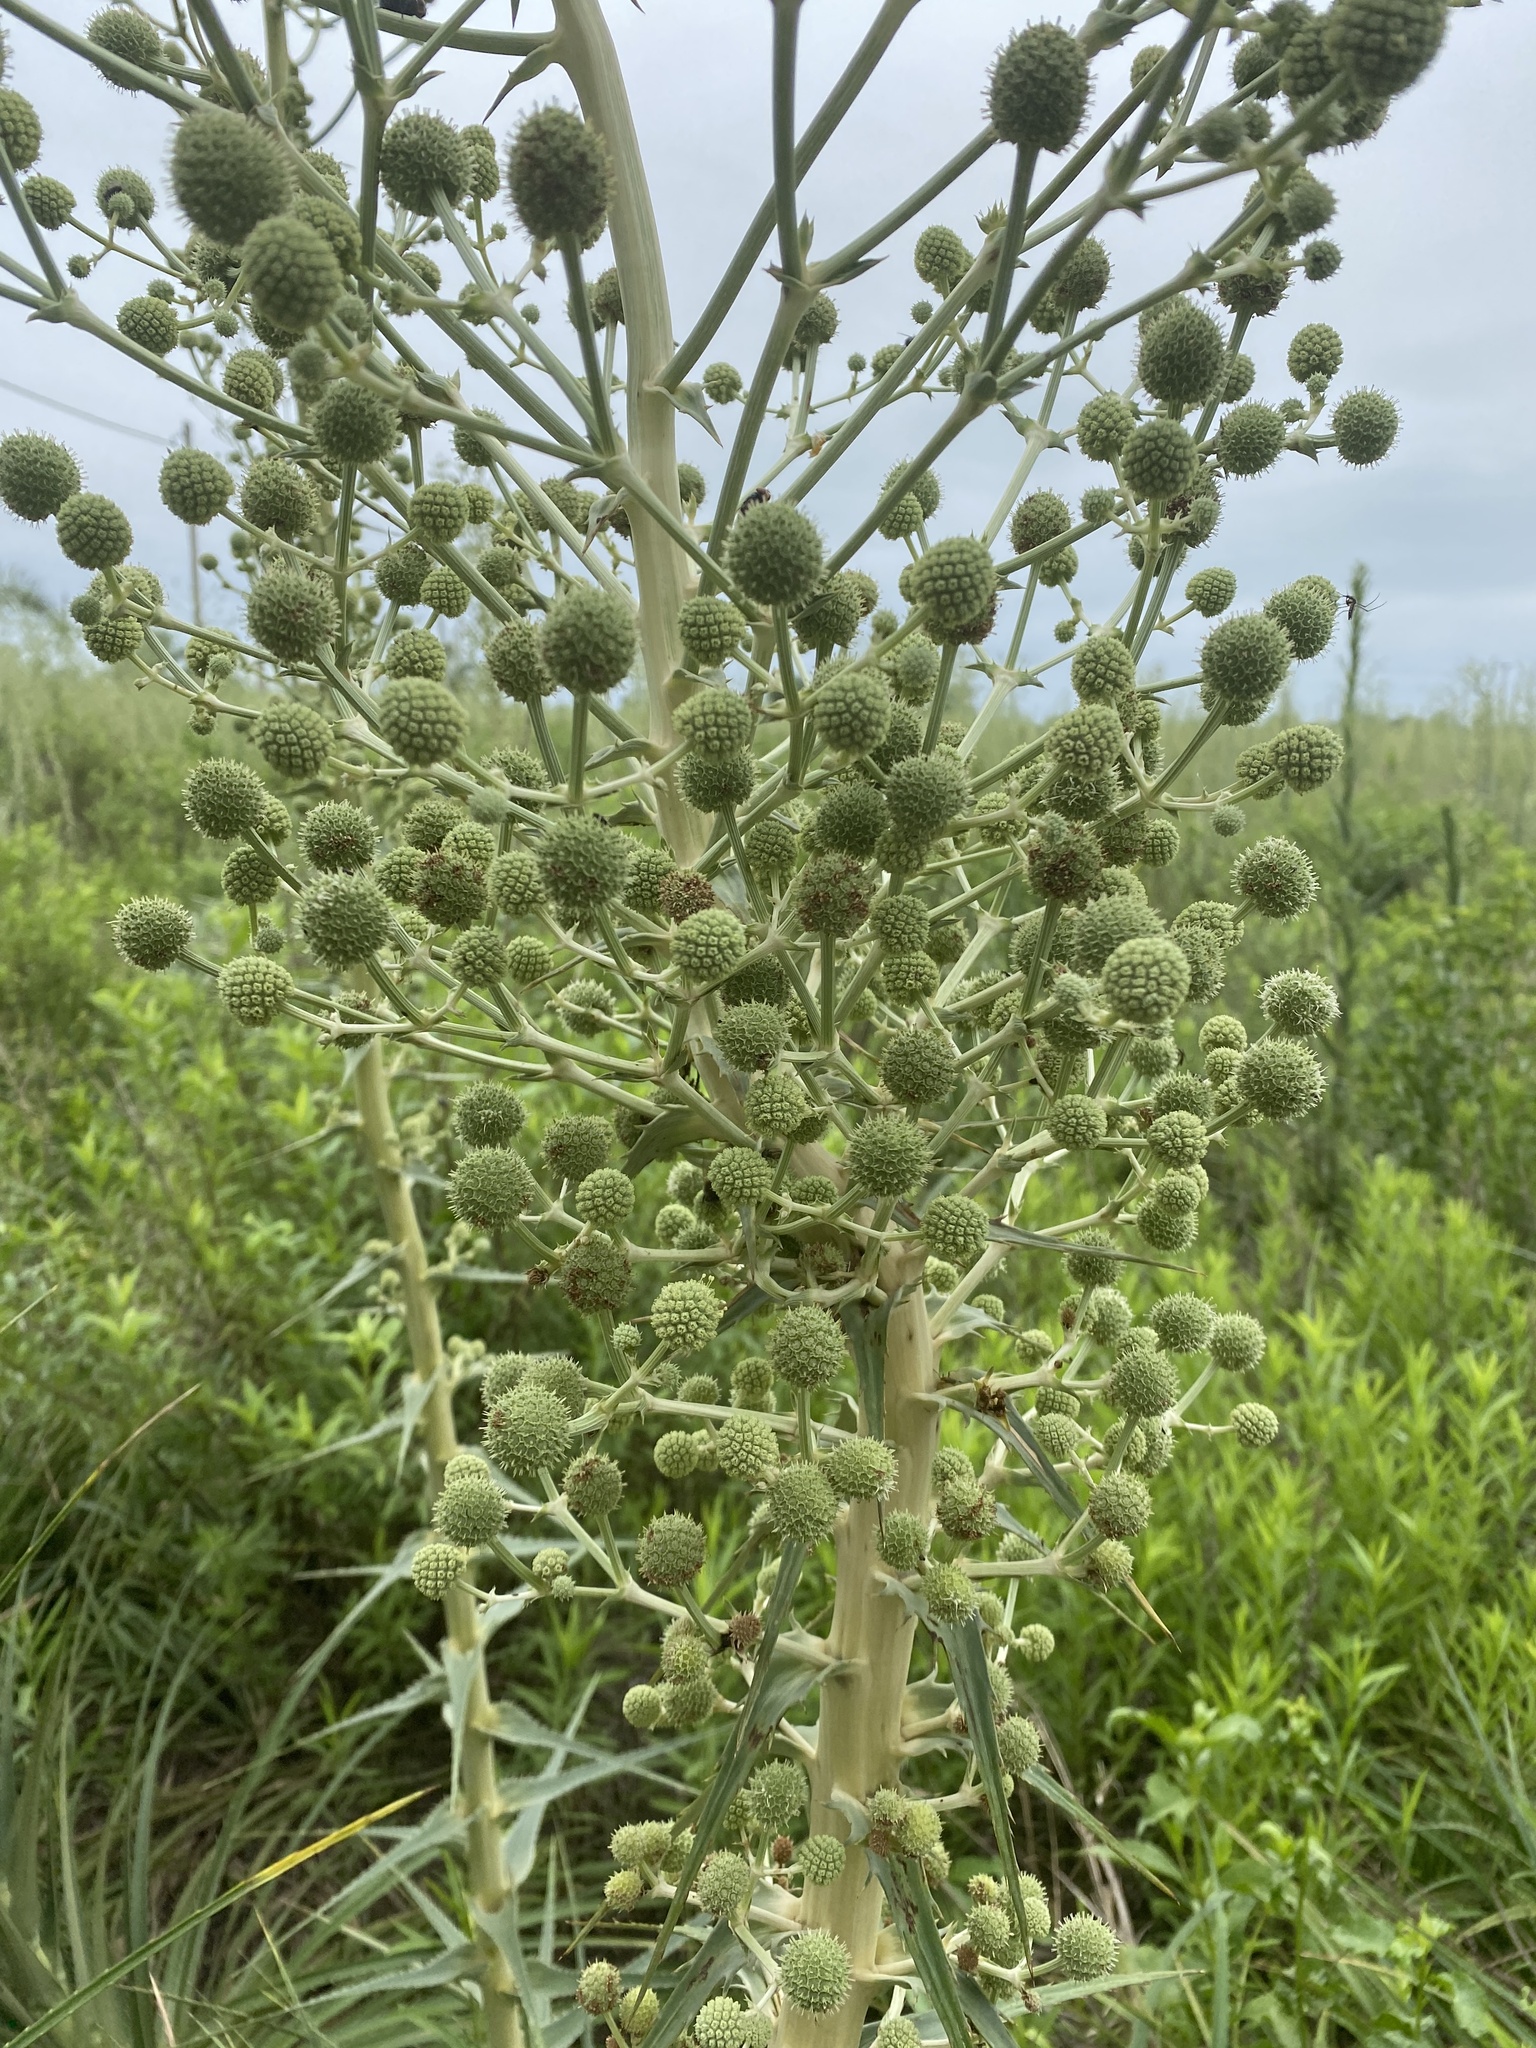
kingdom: Plantae
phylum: Tracheophyta
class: Magnoliopsida
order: Apiales
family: Apiaceae
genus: Eryngium
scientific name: Eryngium horridum
